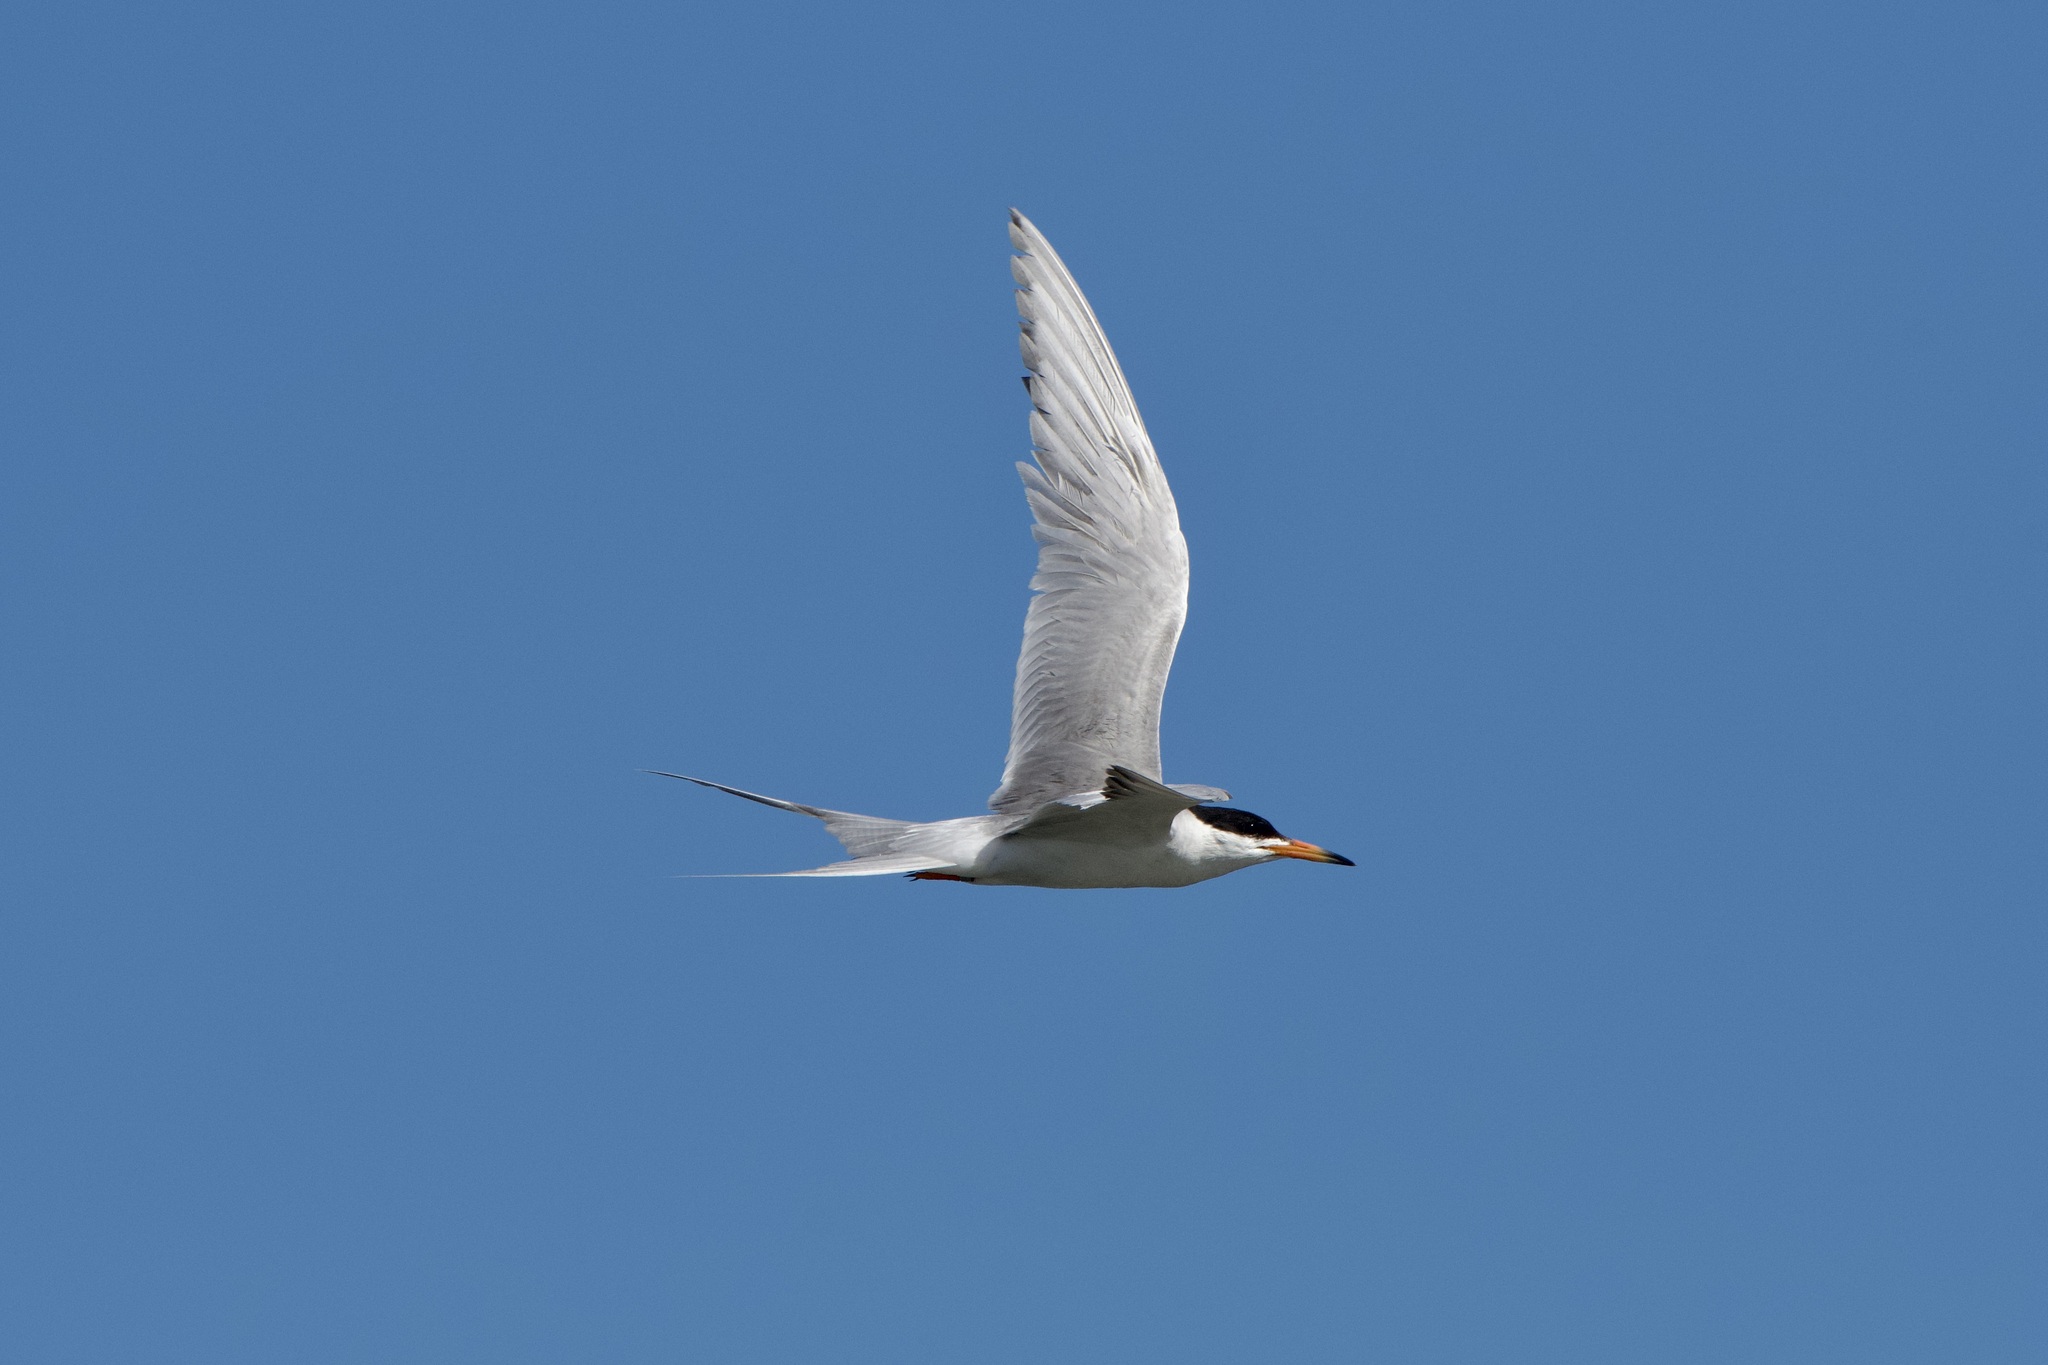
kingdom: Animalia
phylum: Chordata
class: Aves
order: Charadriiformes
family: Laridae
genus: Sterna
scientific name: Sterna forsteri
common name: Forster's tern
